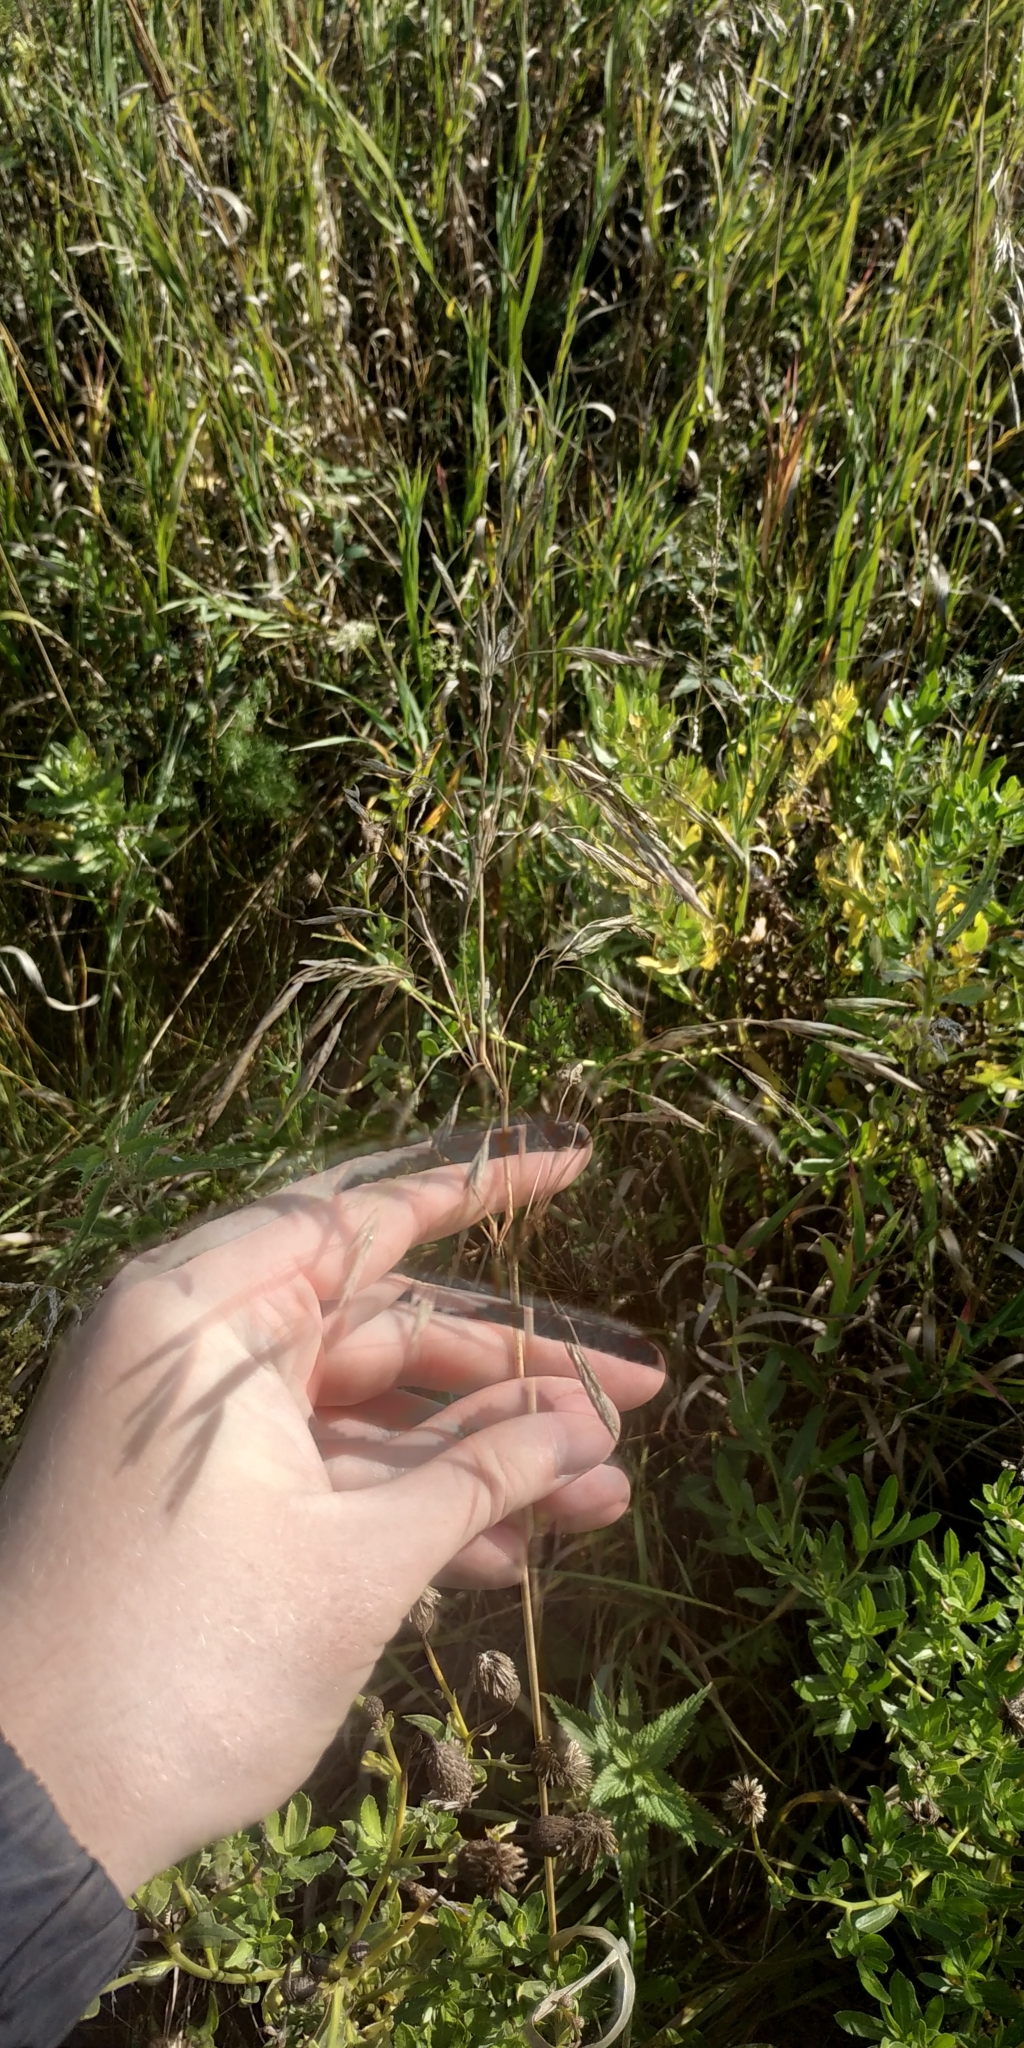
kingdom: Plantae
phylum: Tracheophyta
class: Liliopsida
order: Poales
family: Poaceae
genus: Bromus
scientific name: Bromus inermis
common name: Smooth brome
